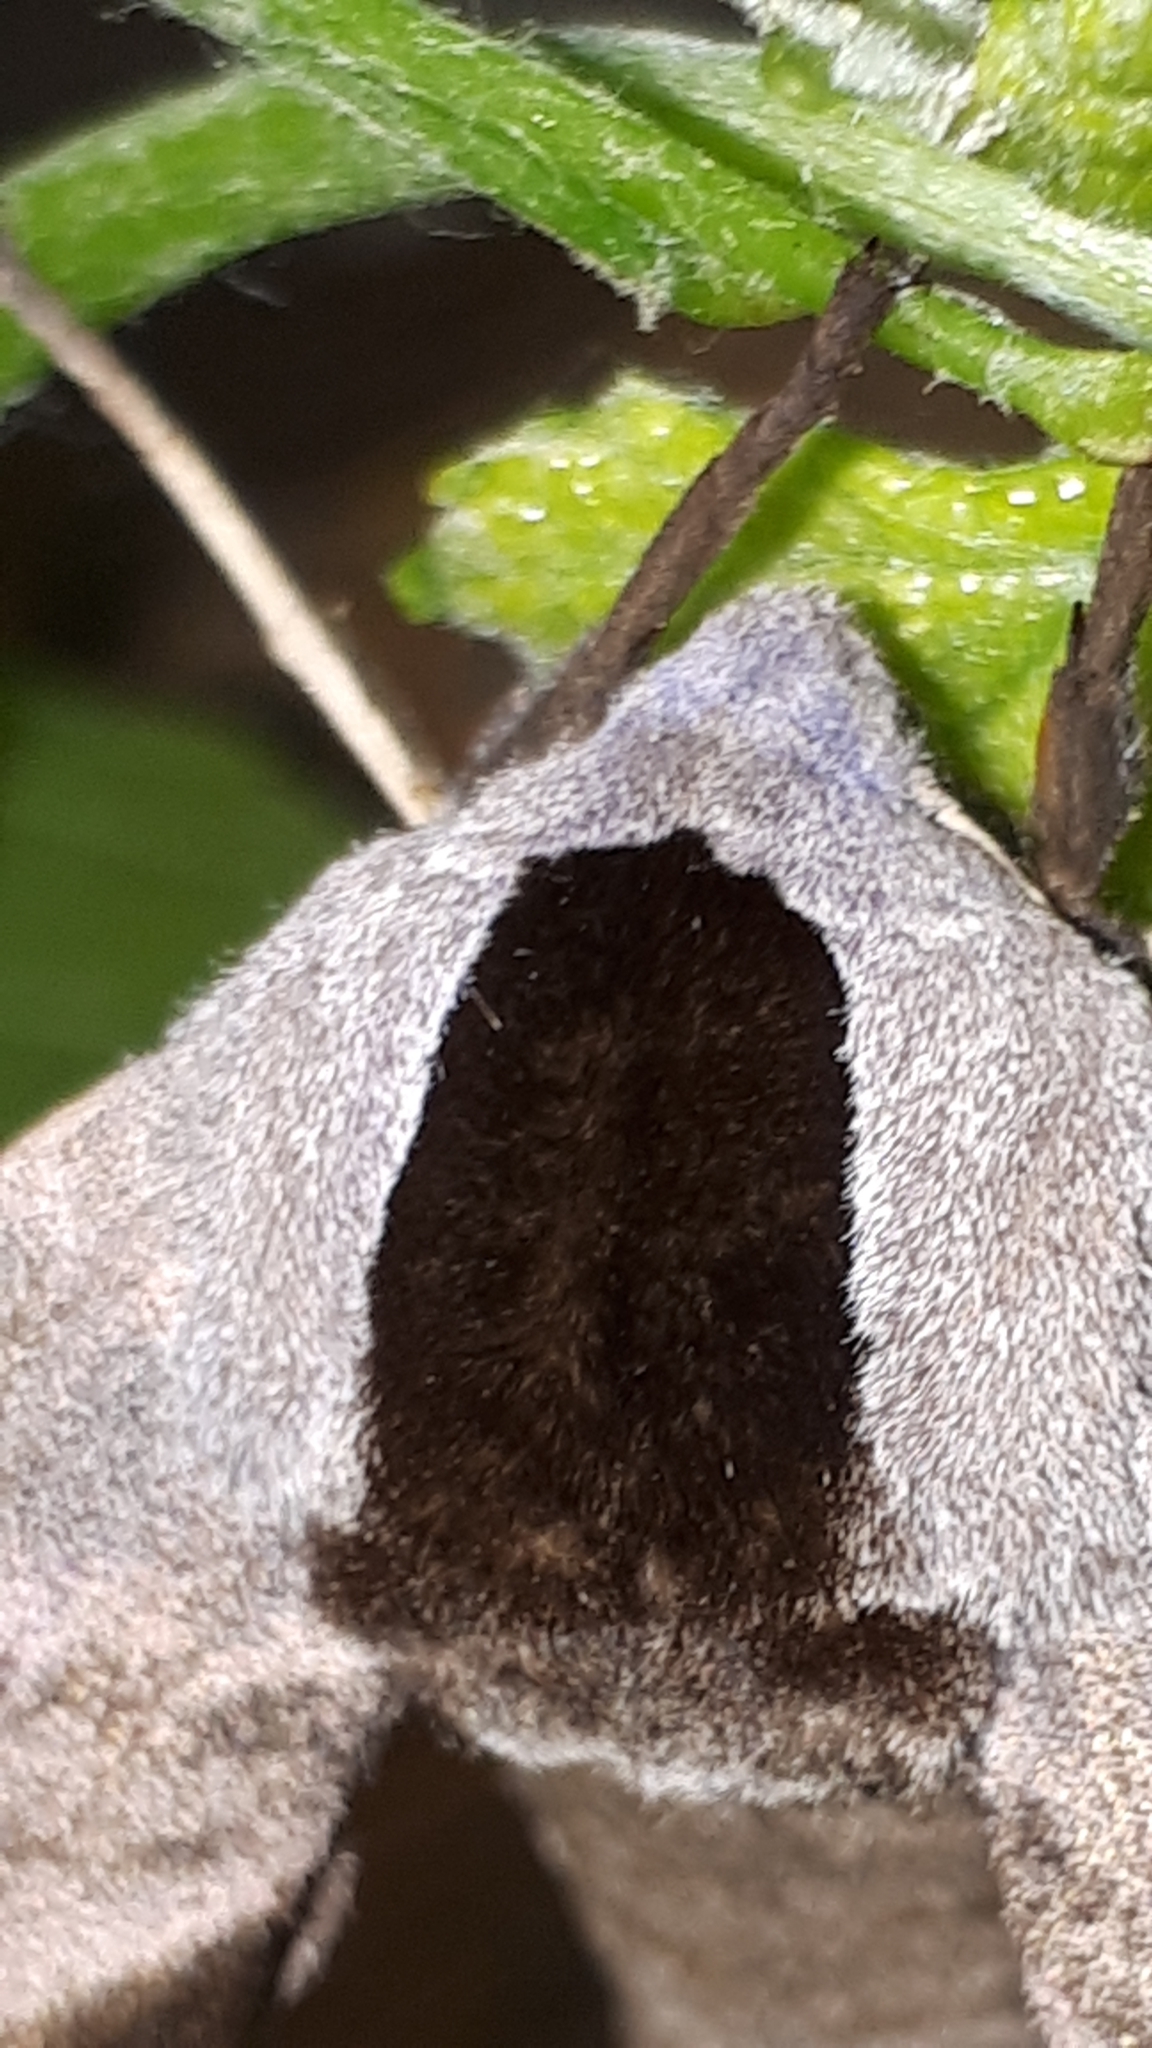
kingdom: Animalia
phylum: Arthropoda
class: Insecta
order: Lepidoptera
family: Sphingidae
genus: Smerinthus
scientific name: Smerinthus ocellata
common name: Eyed hawk-moth
